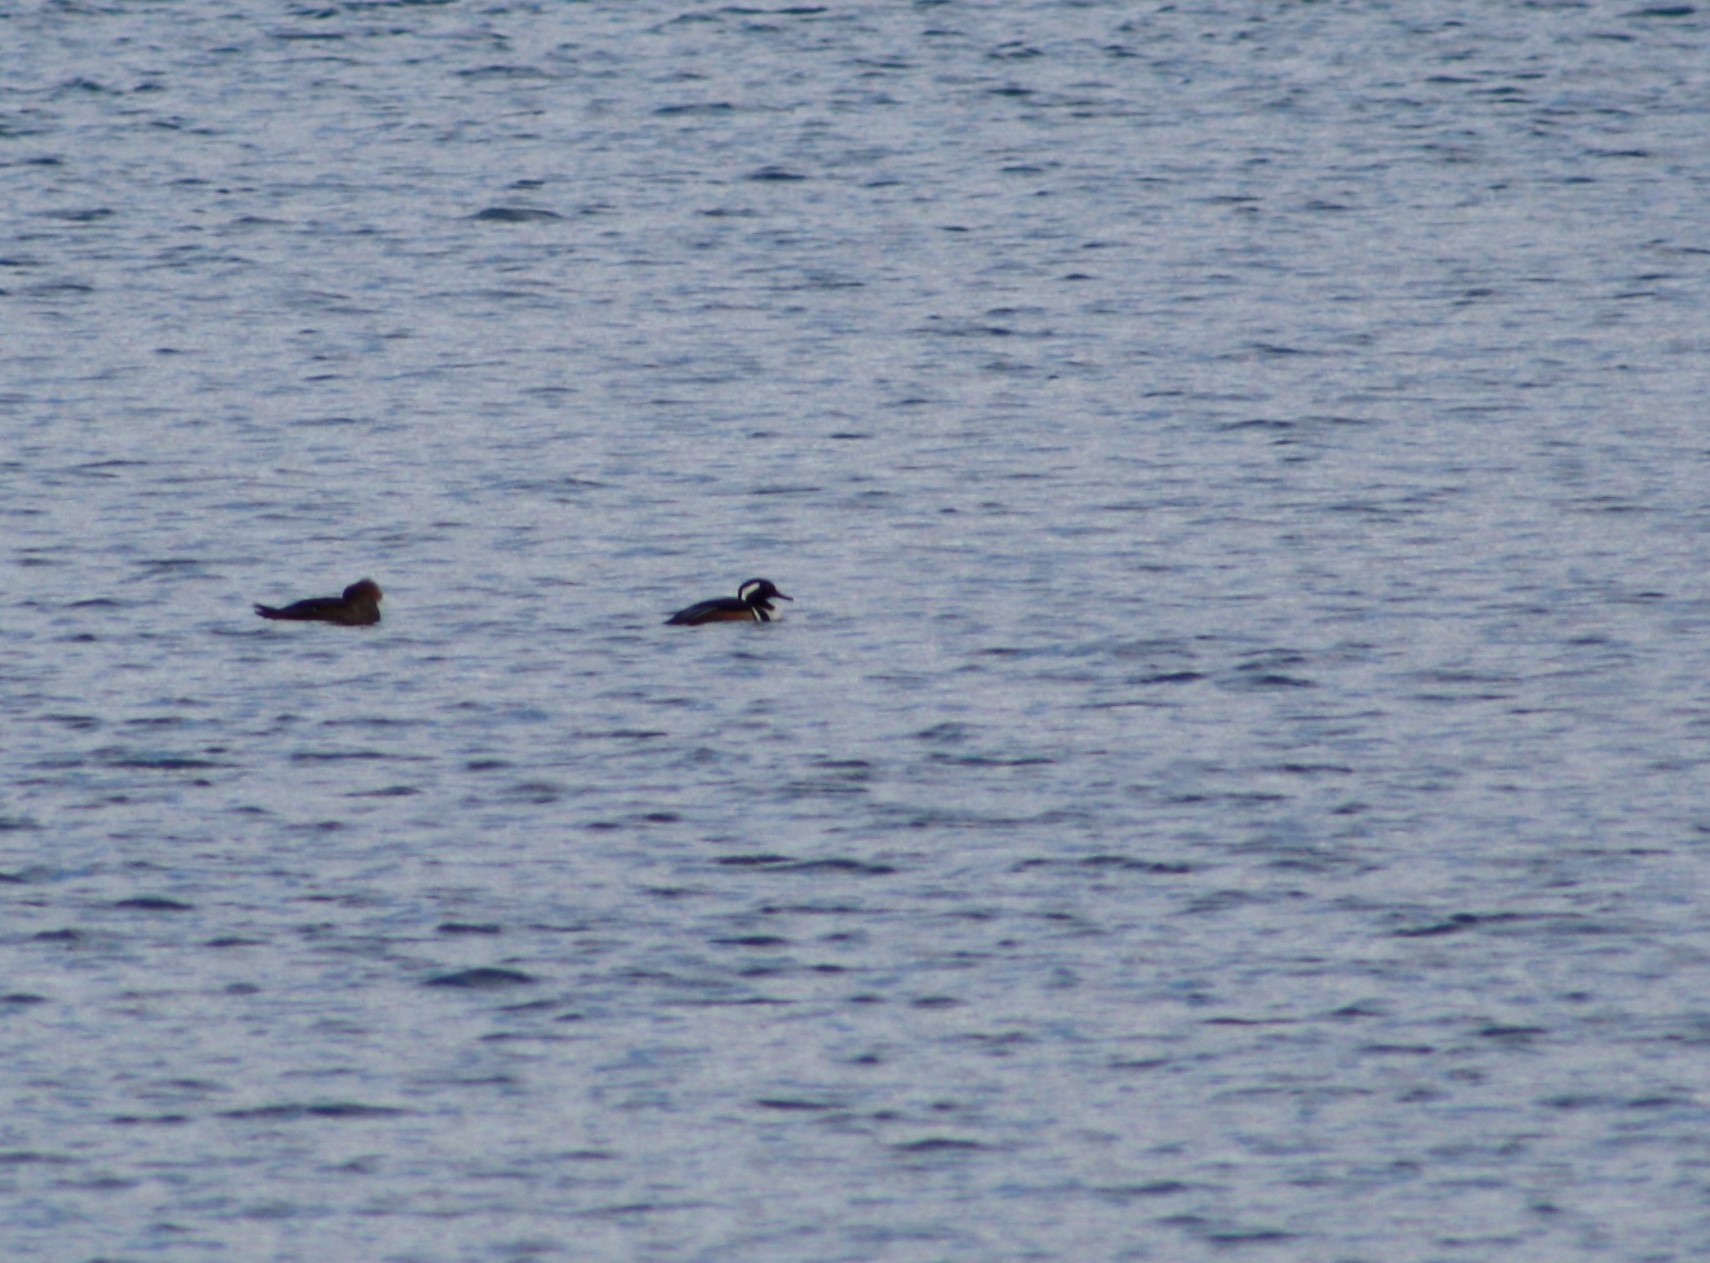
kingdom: Animalia
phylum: Chordata
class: Aves
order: Anseriformes
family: Anatidae
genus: Lophodytes
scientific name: Lophodytes cucullatus
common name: Hooded merganser
